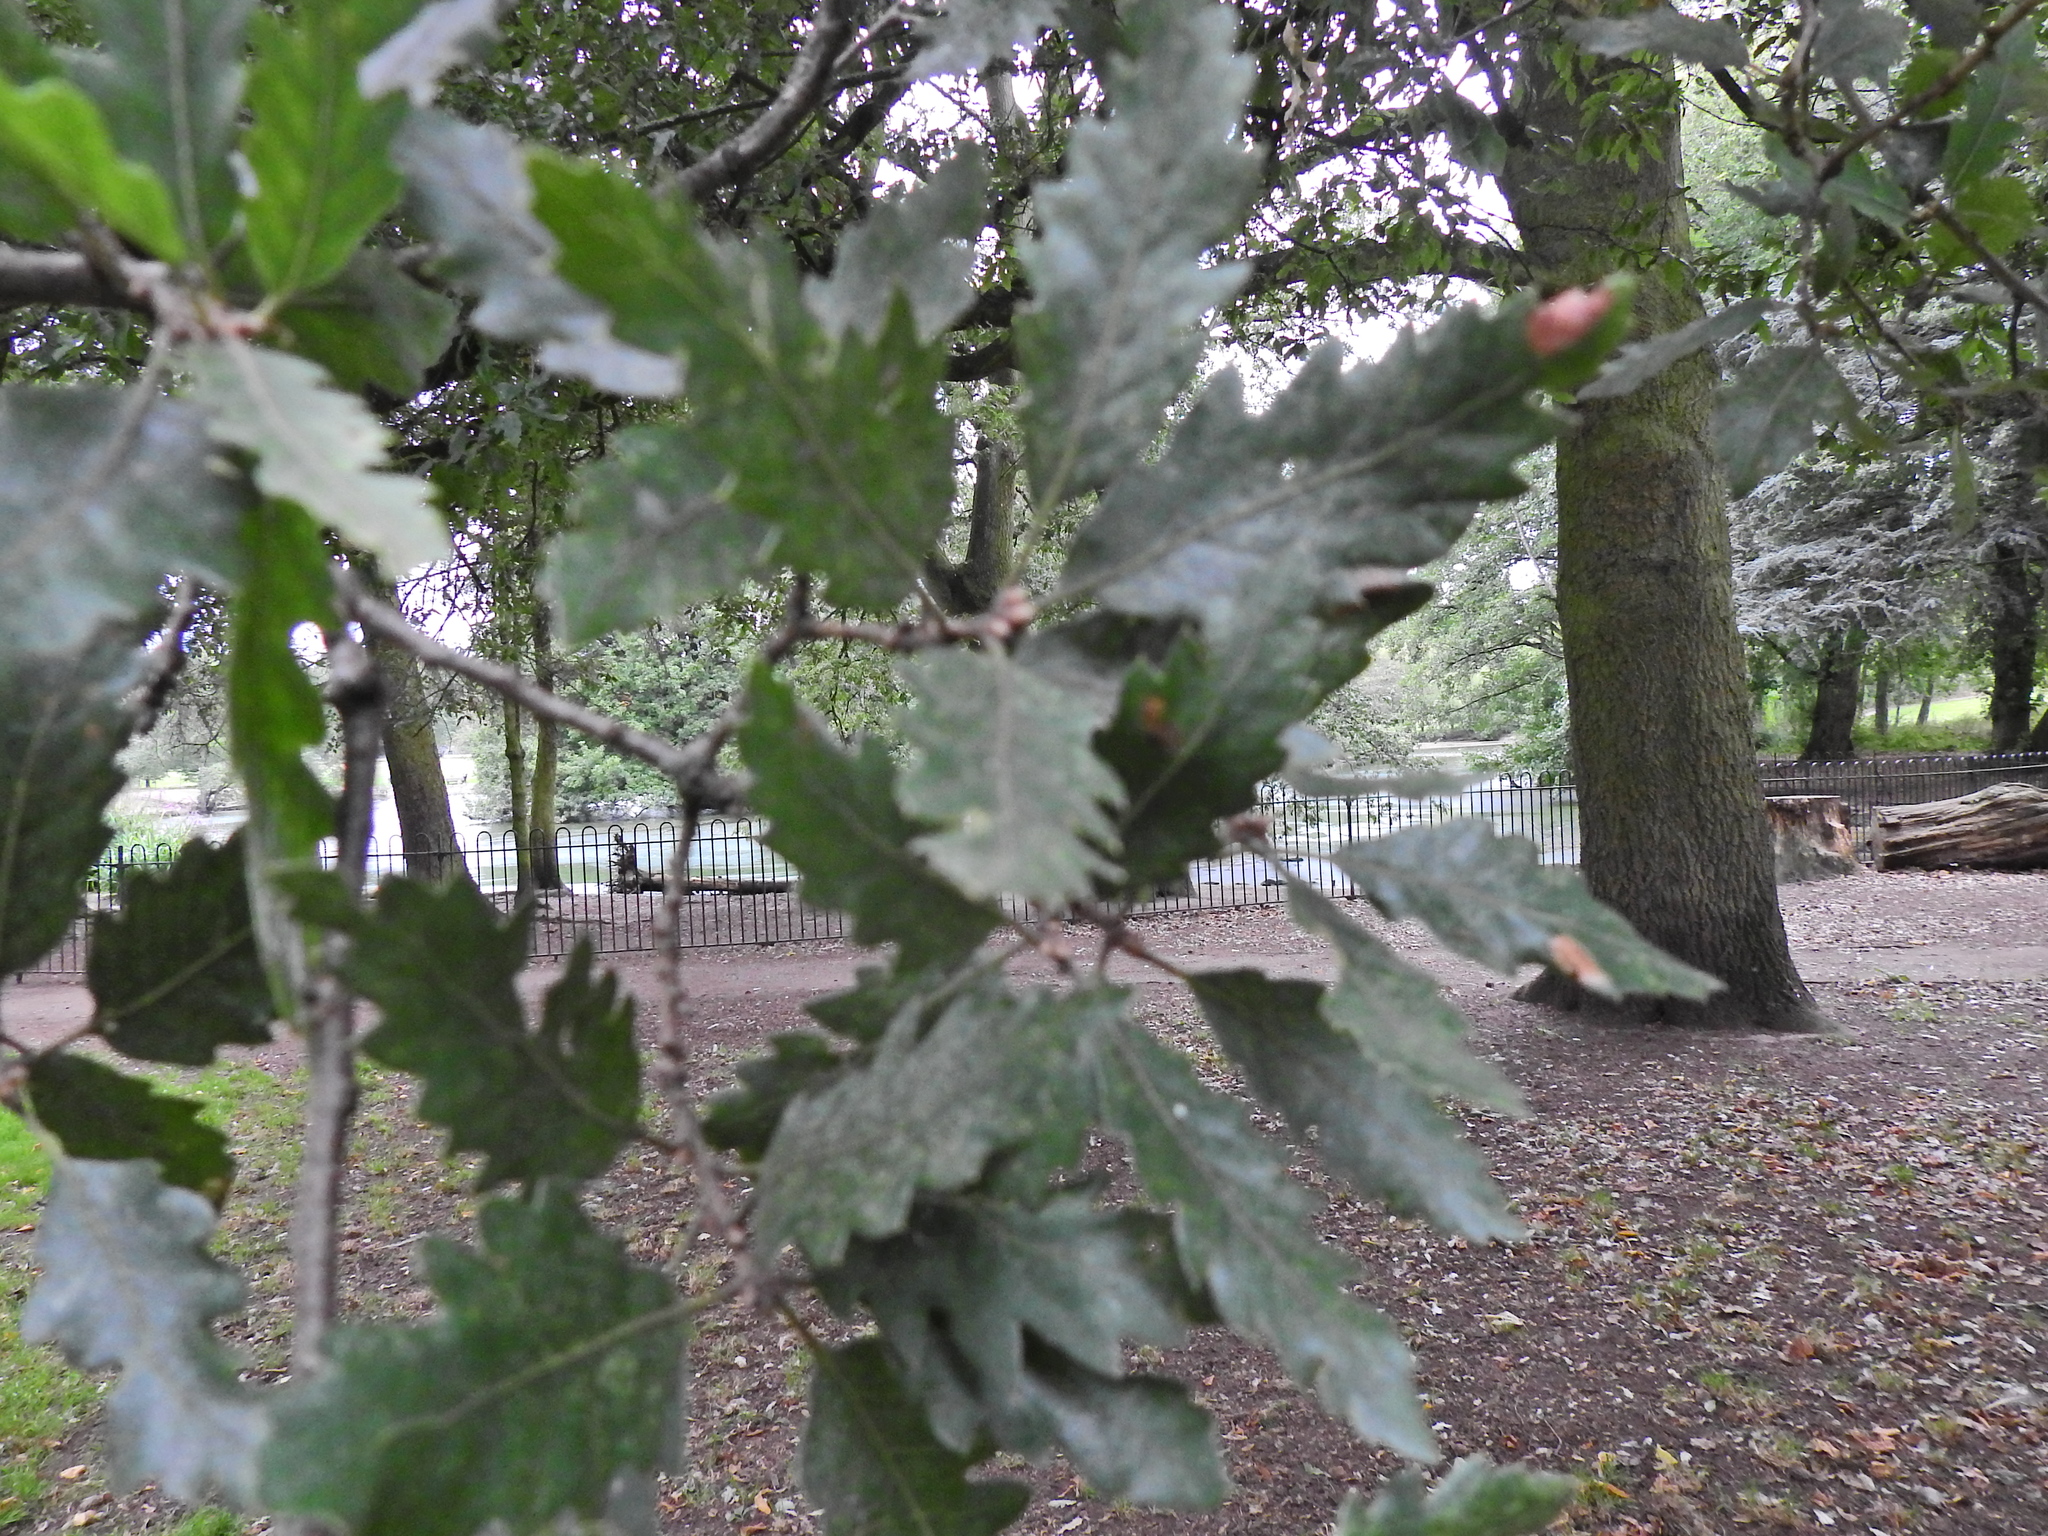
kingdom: Plantae
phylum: Tracheophyta
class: Magnoliopsida
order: Fagales
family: Fagaceae
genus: Quercus
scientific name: Quercus cerris
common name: Turkey oak
